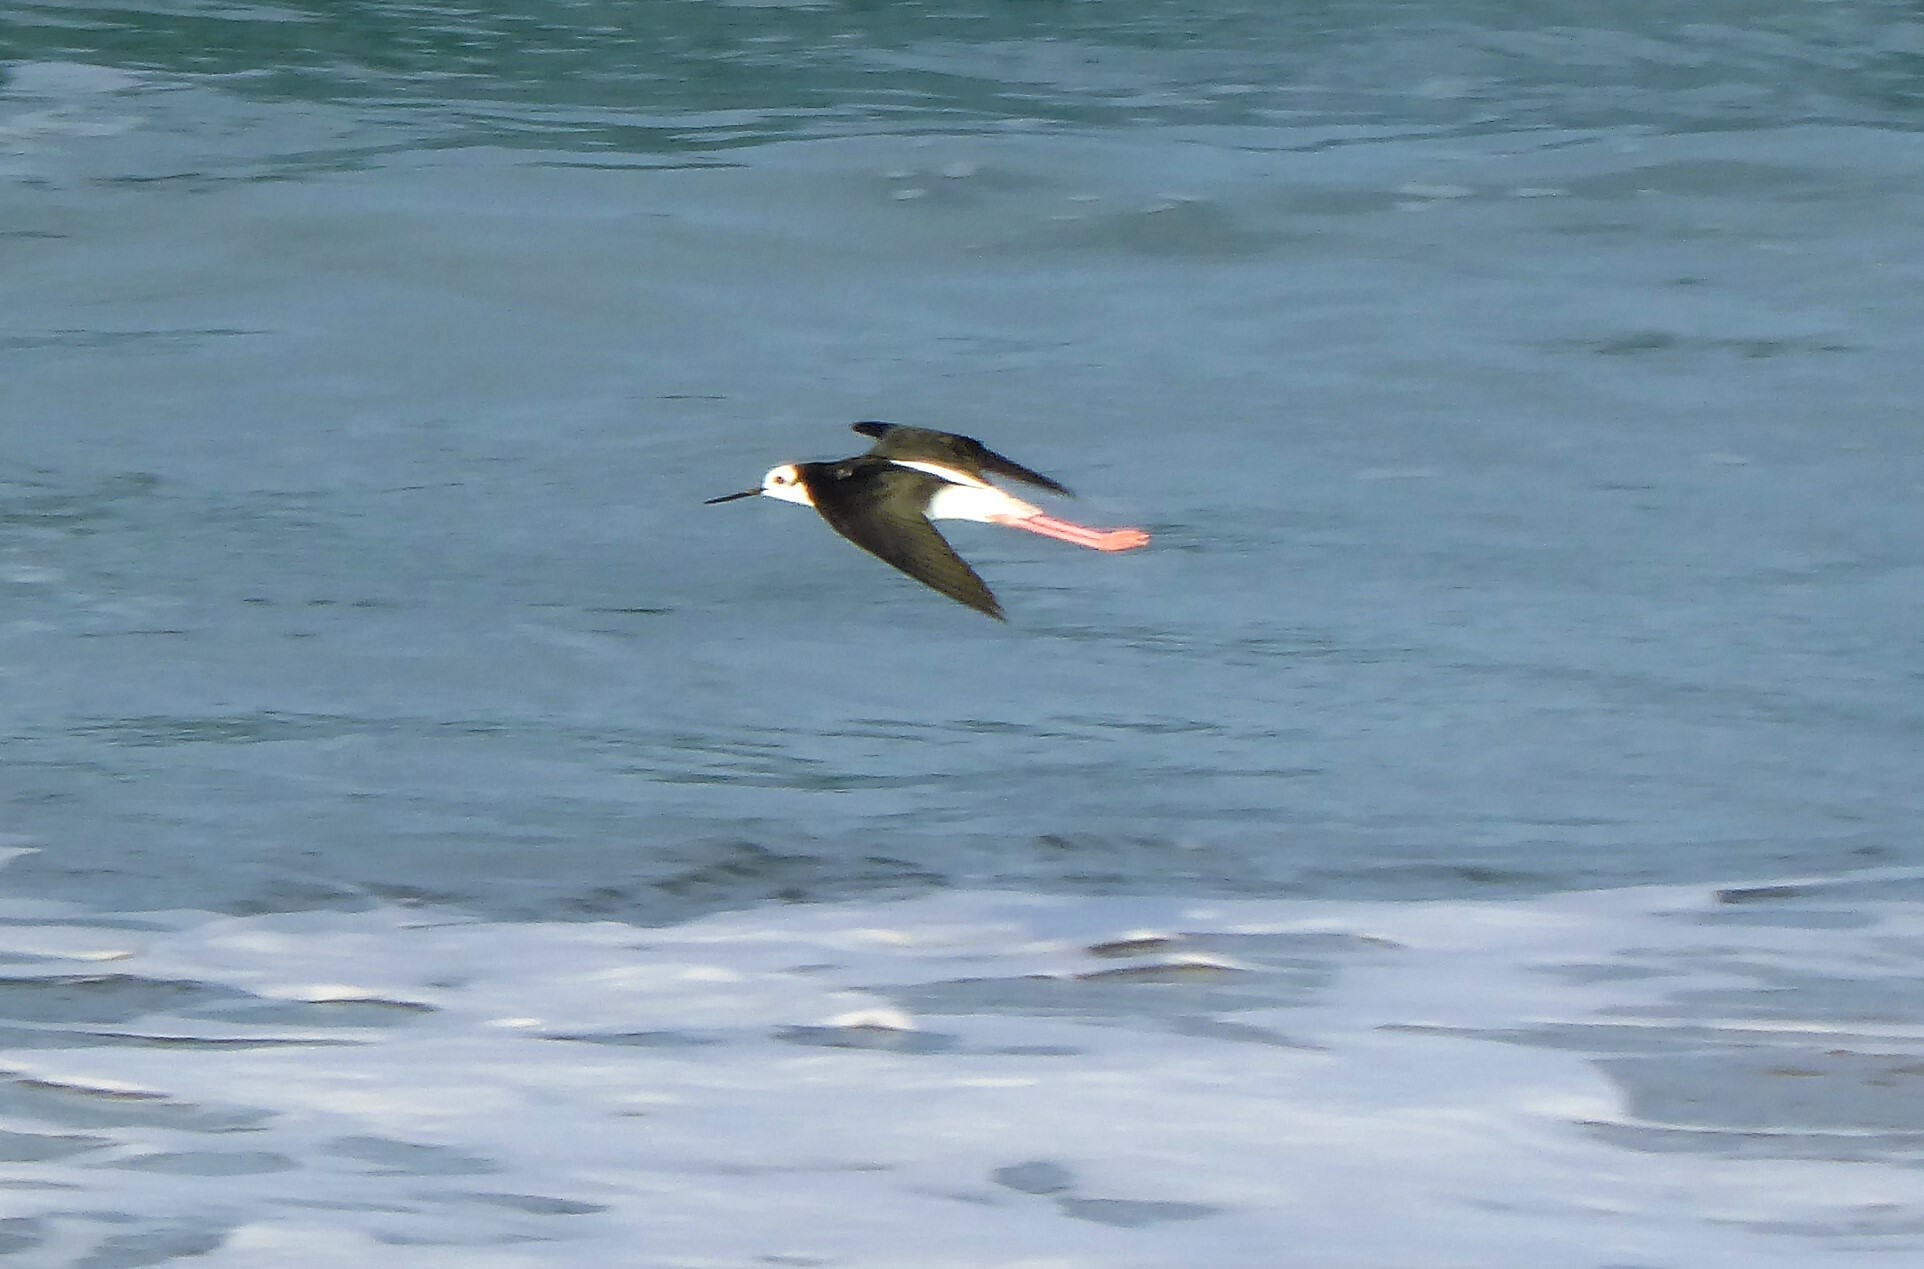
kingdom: Animalia
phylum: Chordata
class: Aves
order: Charadriiformes
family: Recurvirostridae
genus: Himantopus
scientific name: Himantopus leucocephalus
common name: White-headed stilt
